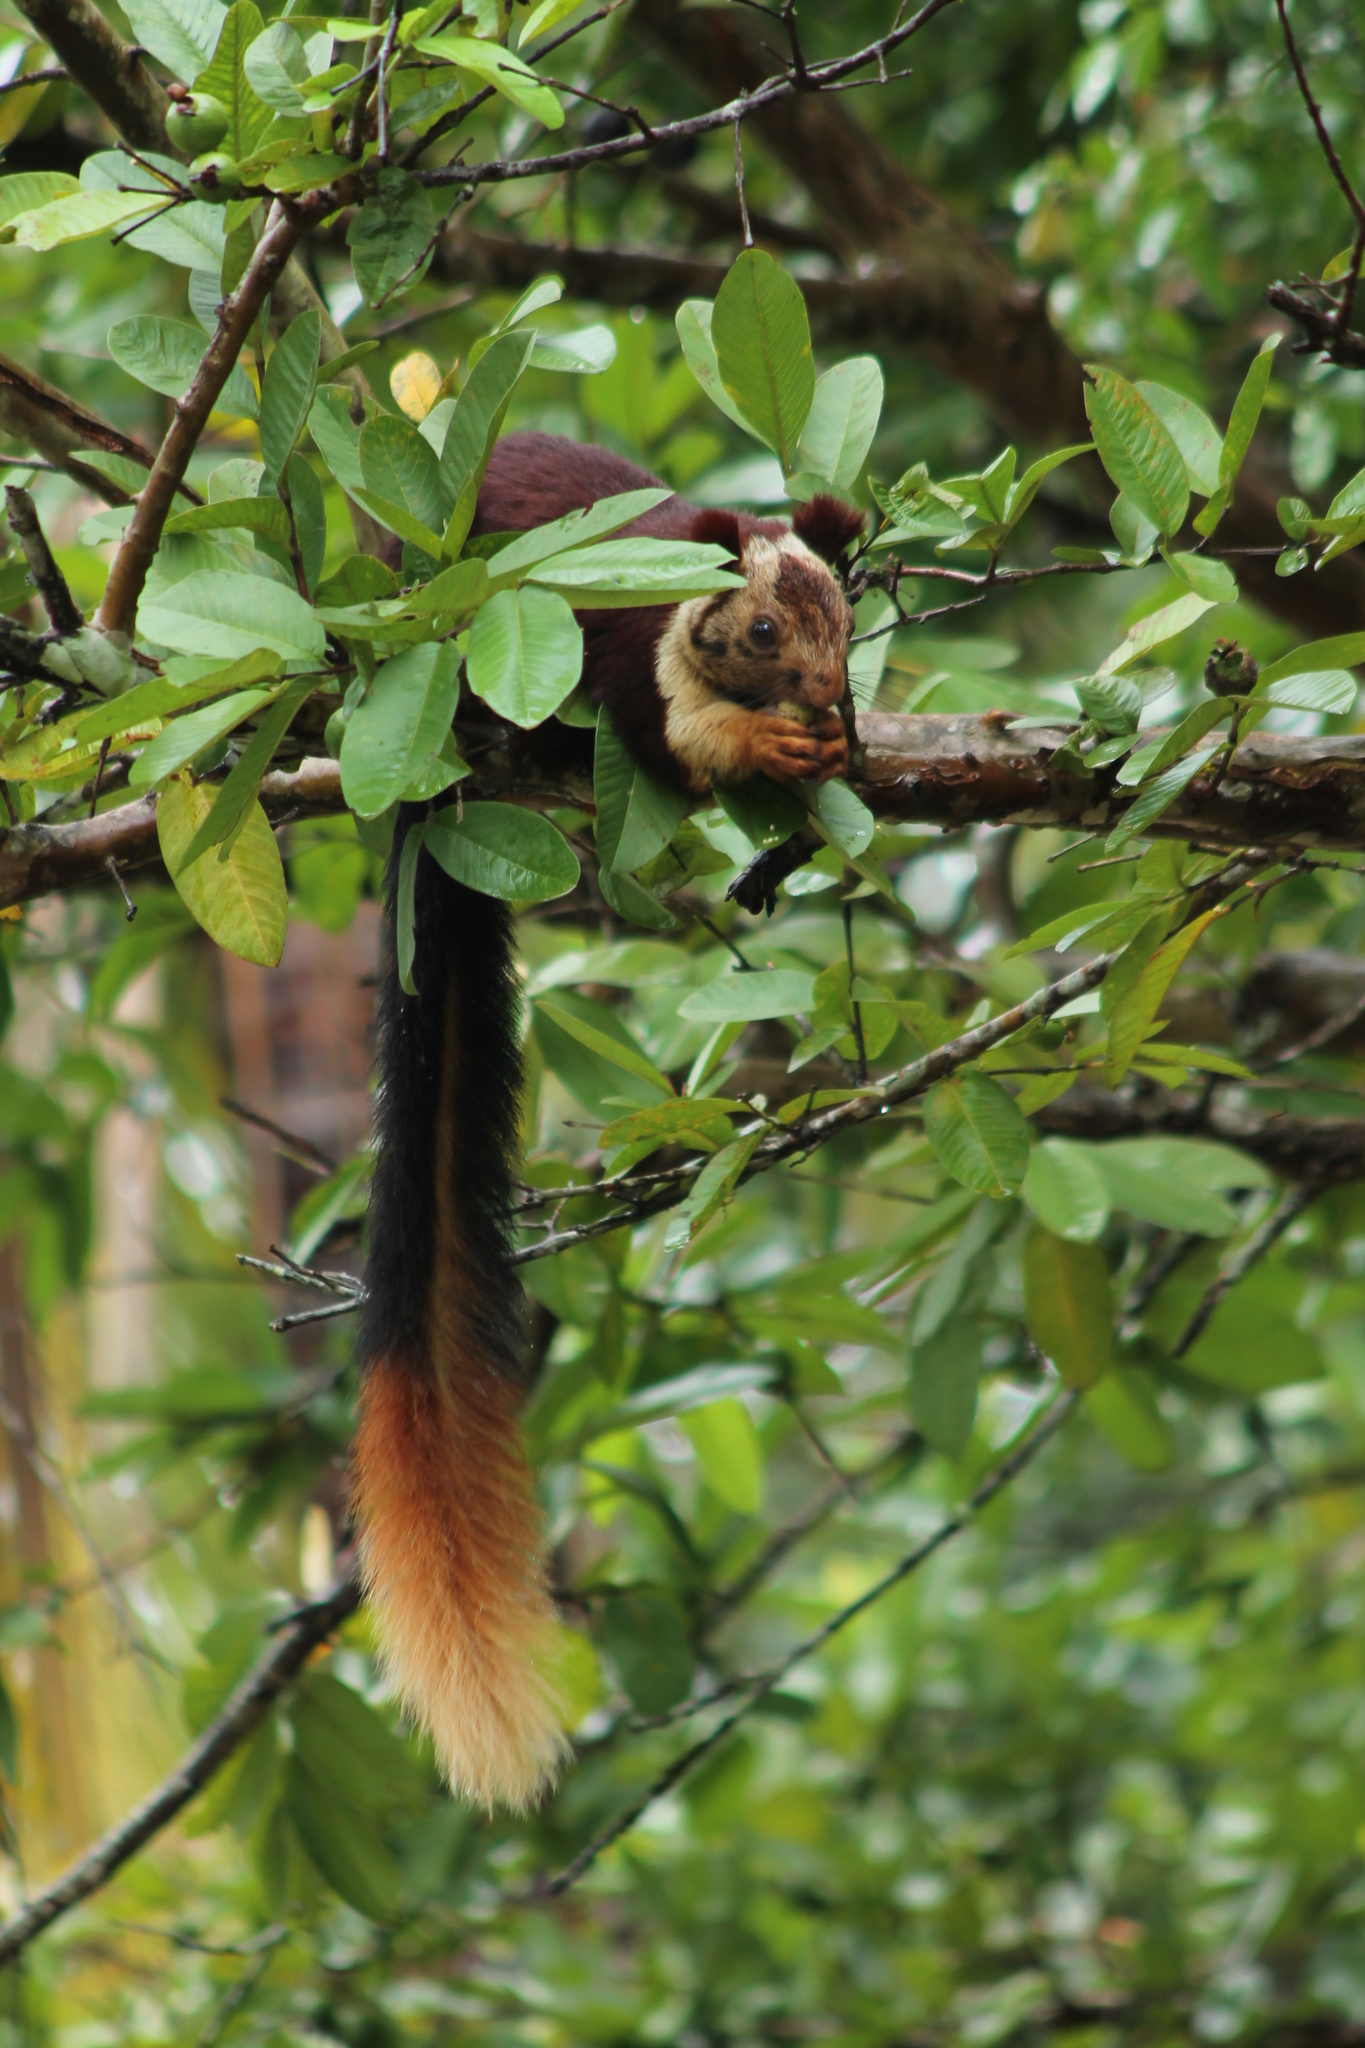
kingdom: Animalia
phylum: Chordata
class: Mammalia
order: Rodentia
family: Sciuridae
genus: Ratufa
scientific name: Ratufa indica
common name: Indian giant squirrel
